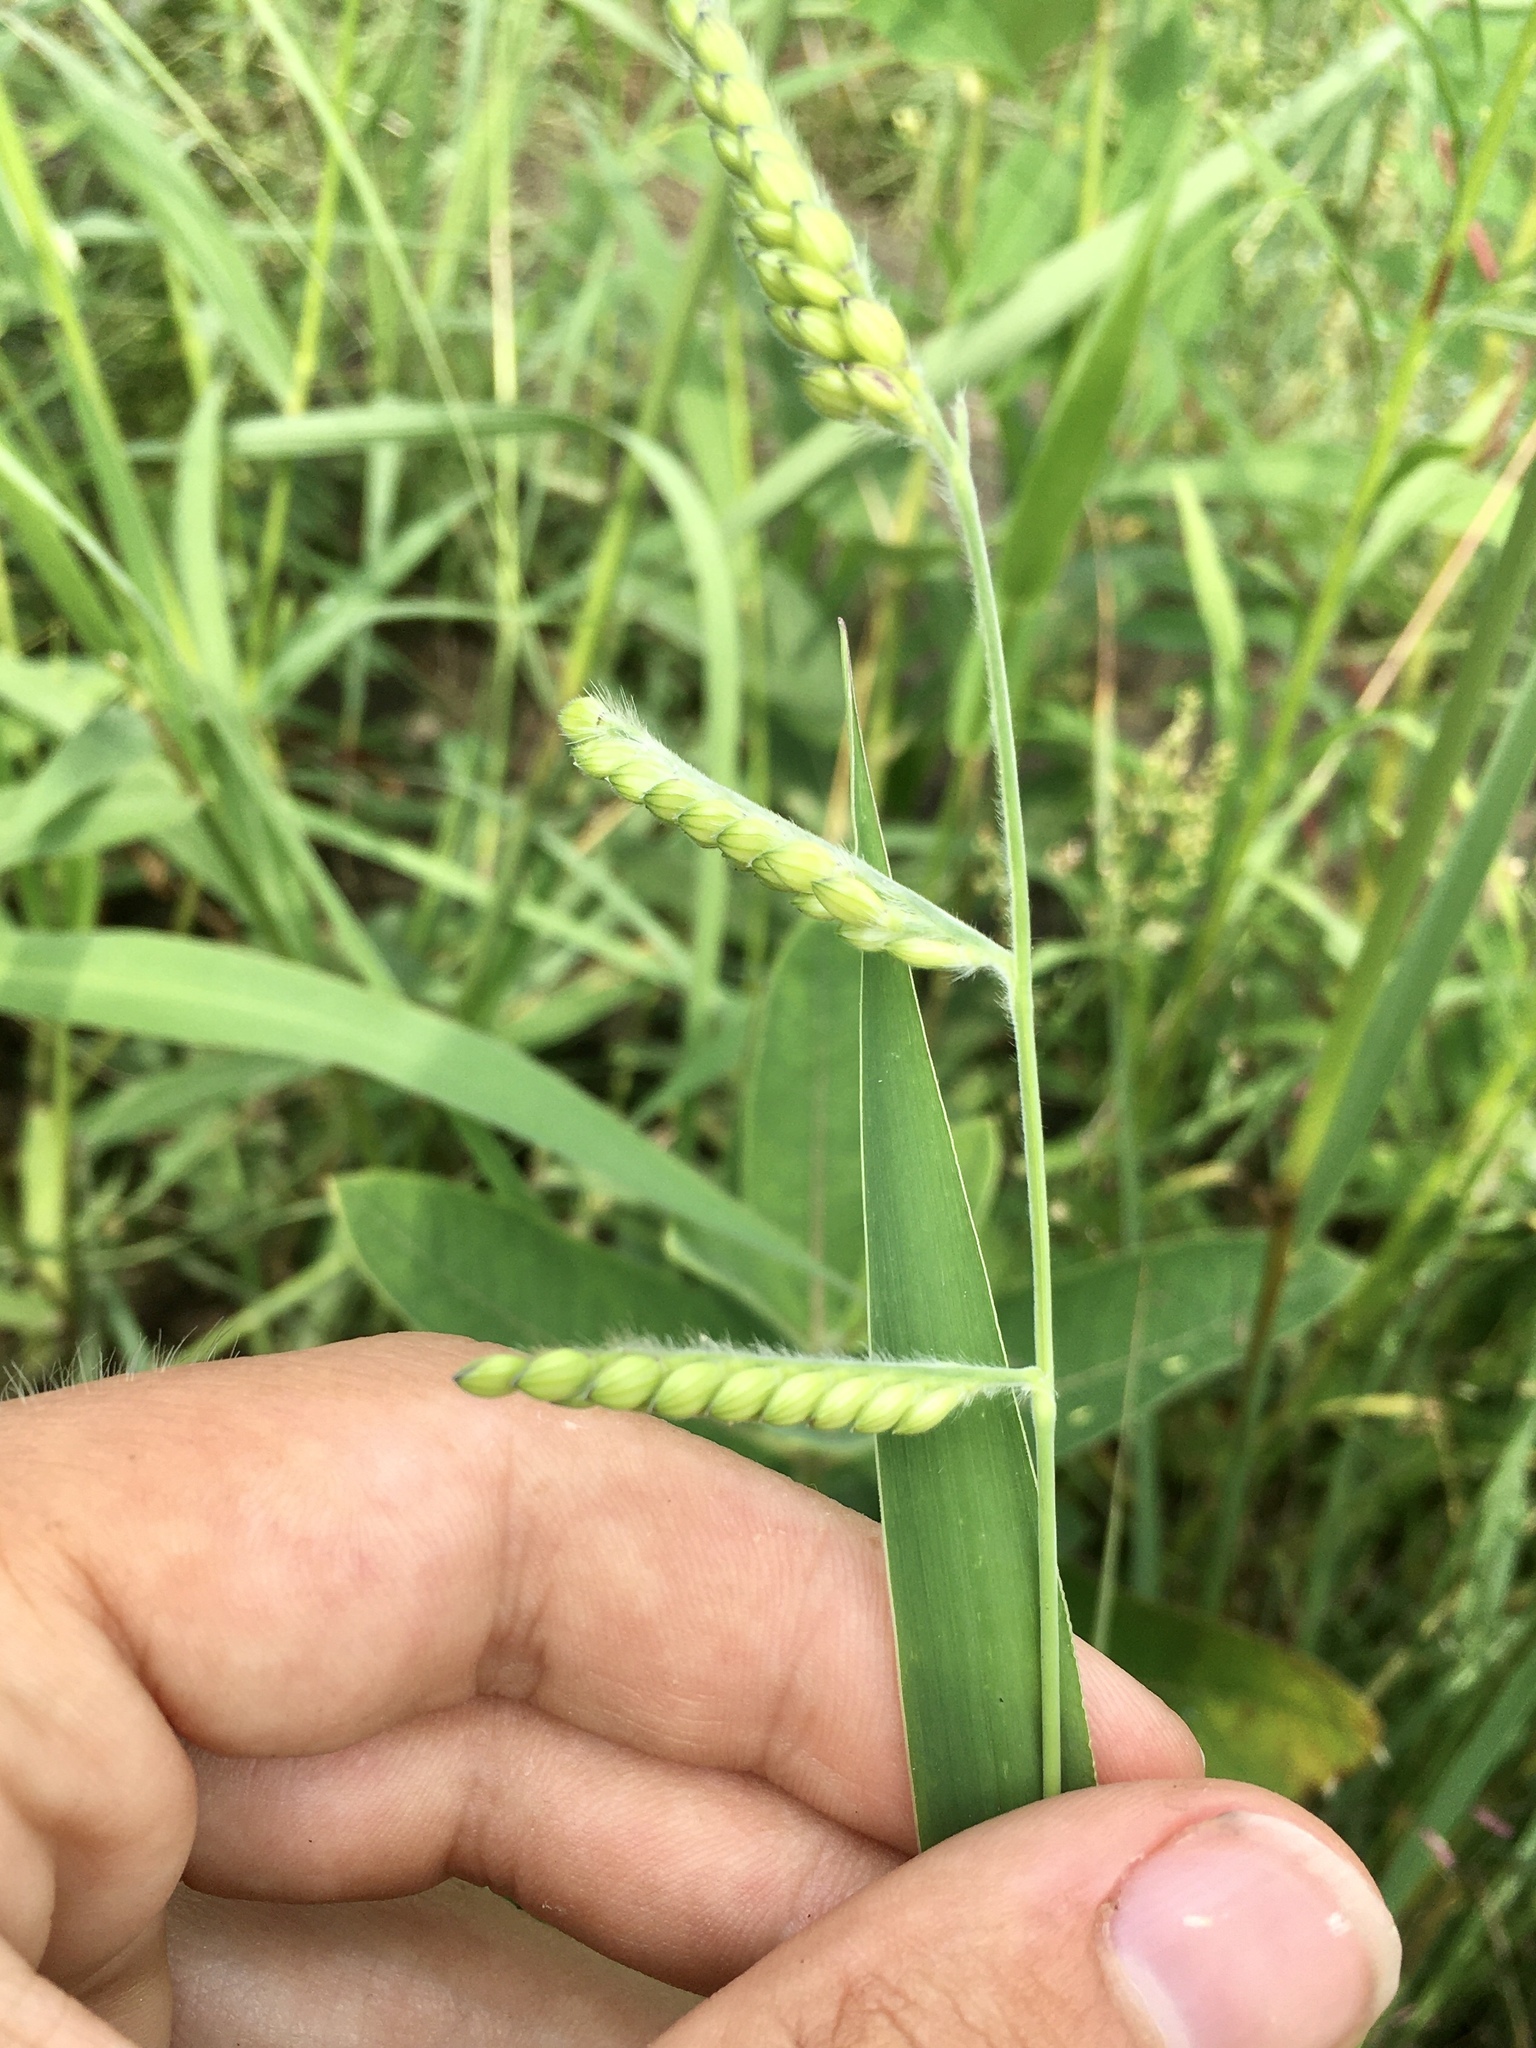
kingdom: Plantae
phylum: Tracheophyta
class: Liliopsida
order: Poales
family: Poaceae
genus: Eriochloa
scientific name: Eriochloa villosa
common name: Hairy cupgrass
